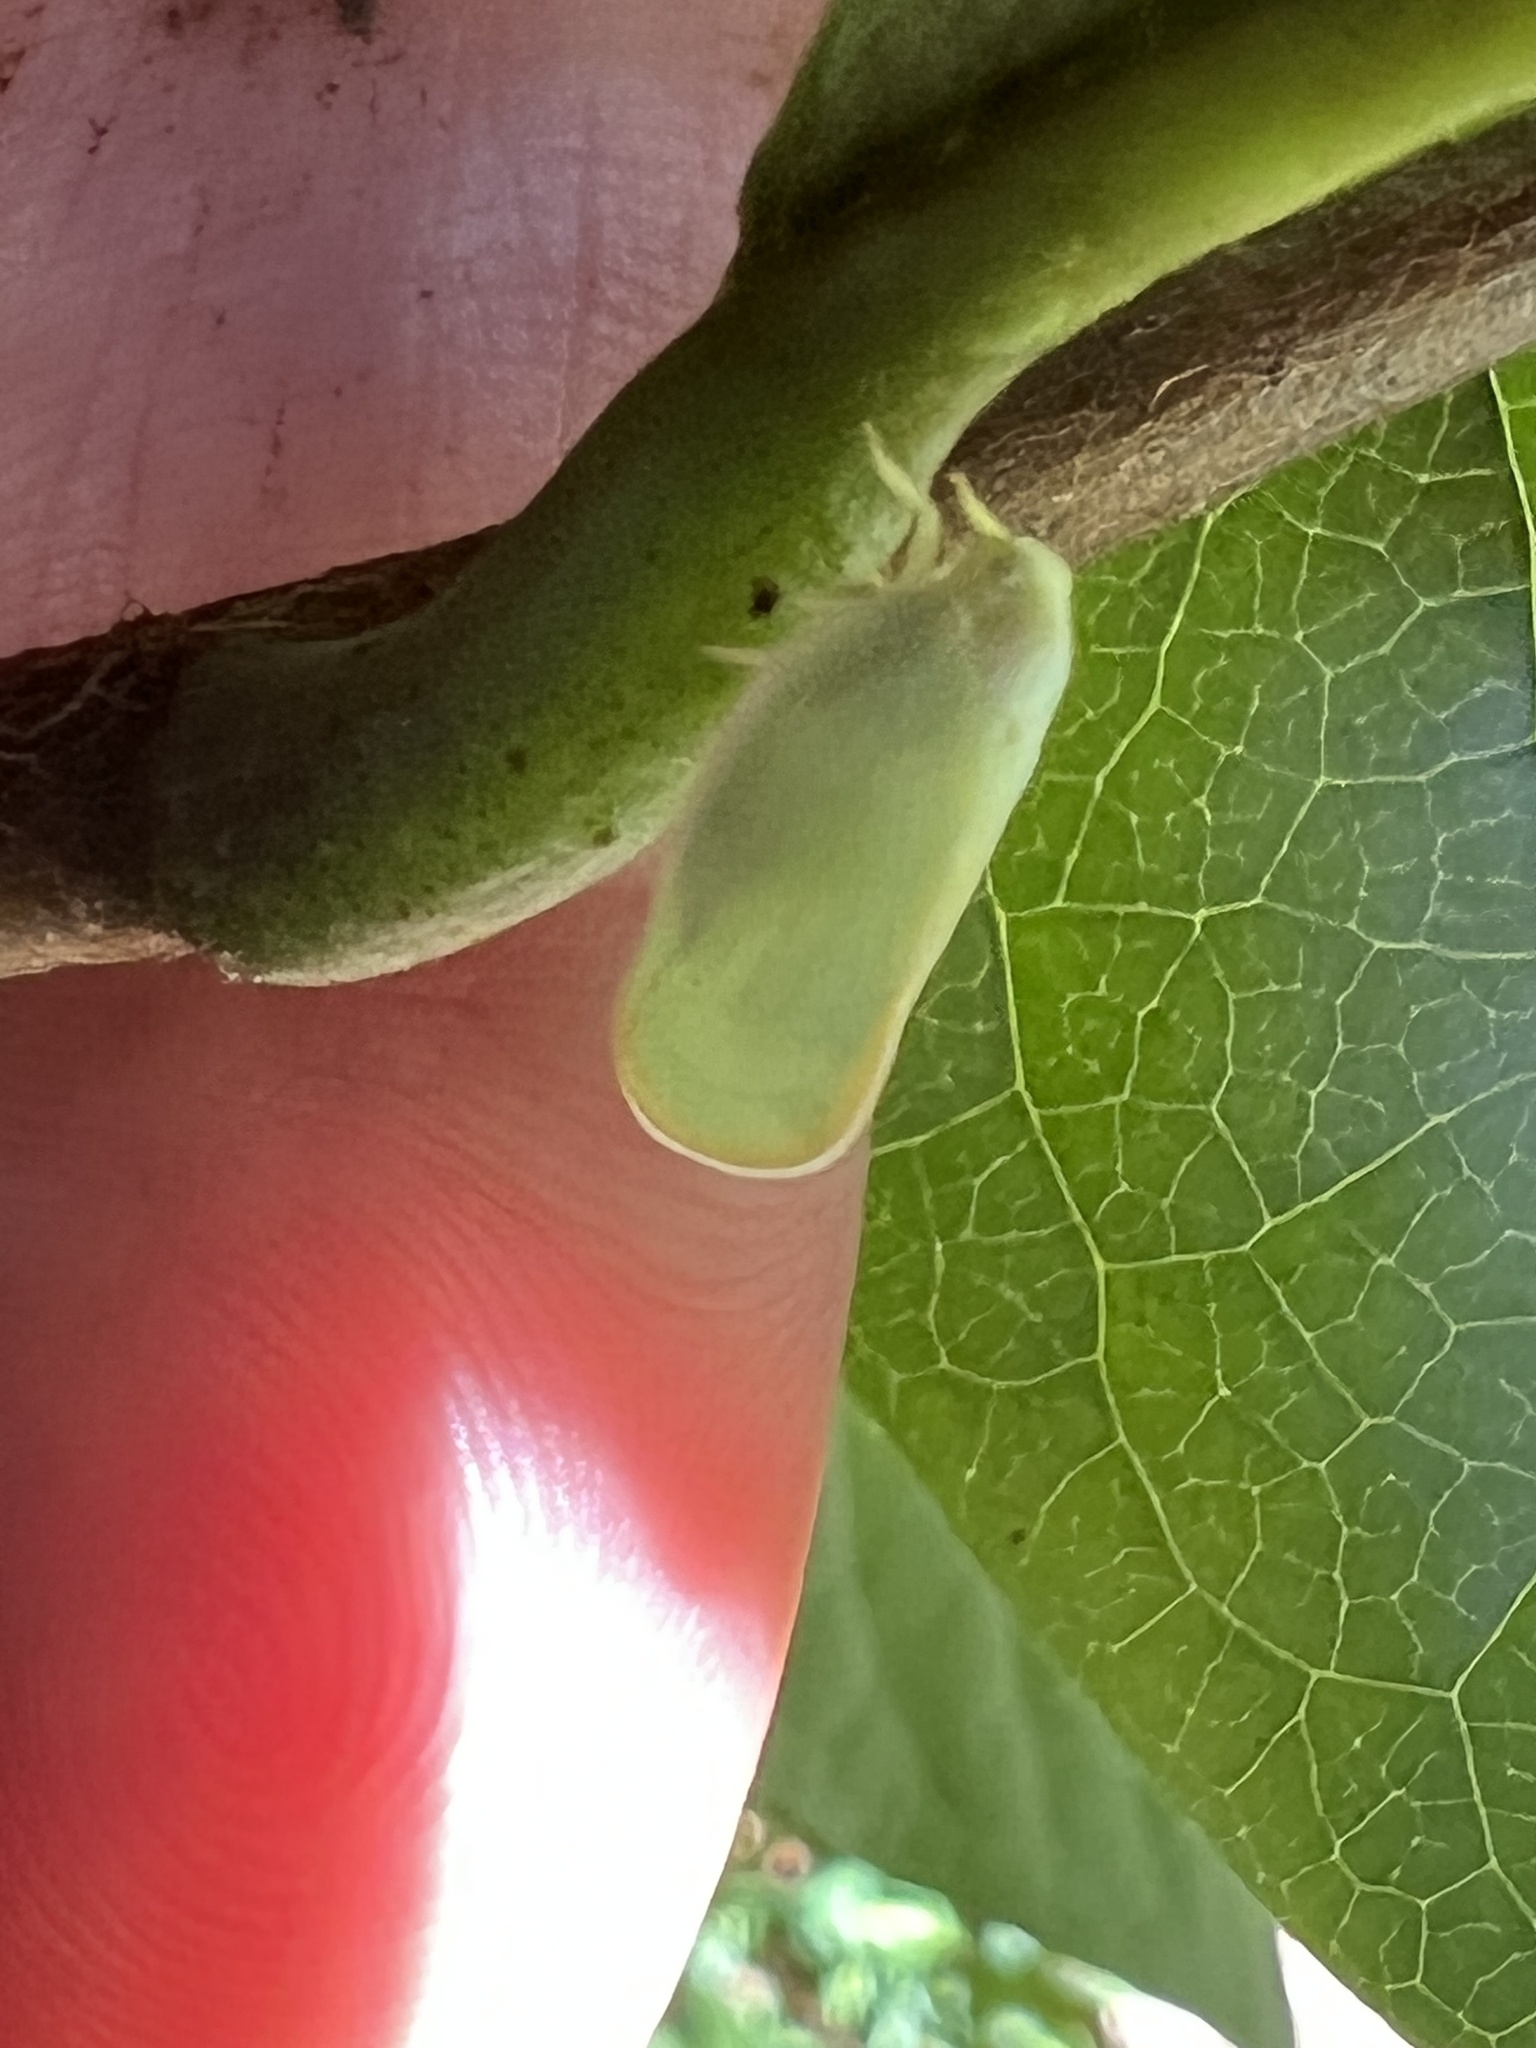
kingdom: Animalia
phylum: Arthropoda
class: Insecta
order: Hemiptera
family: Flatidae
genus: Ormenoides
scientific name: Ormenoides venusta
